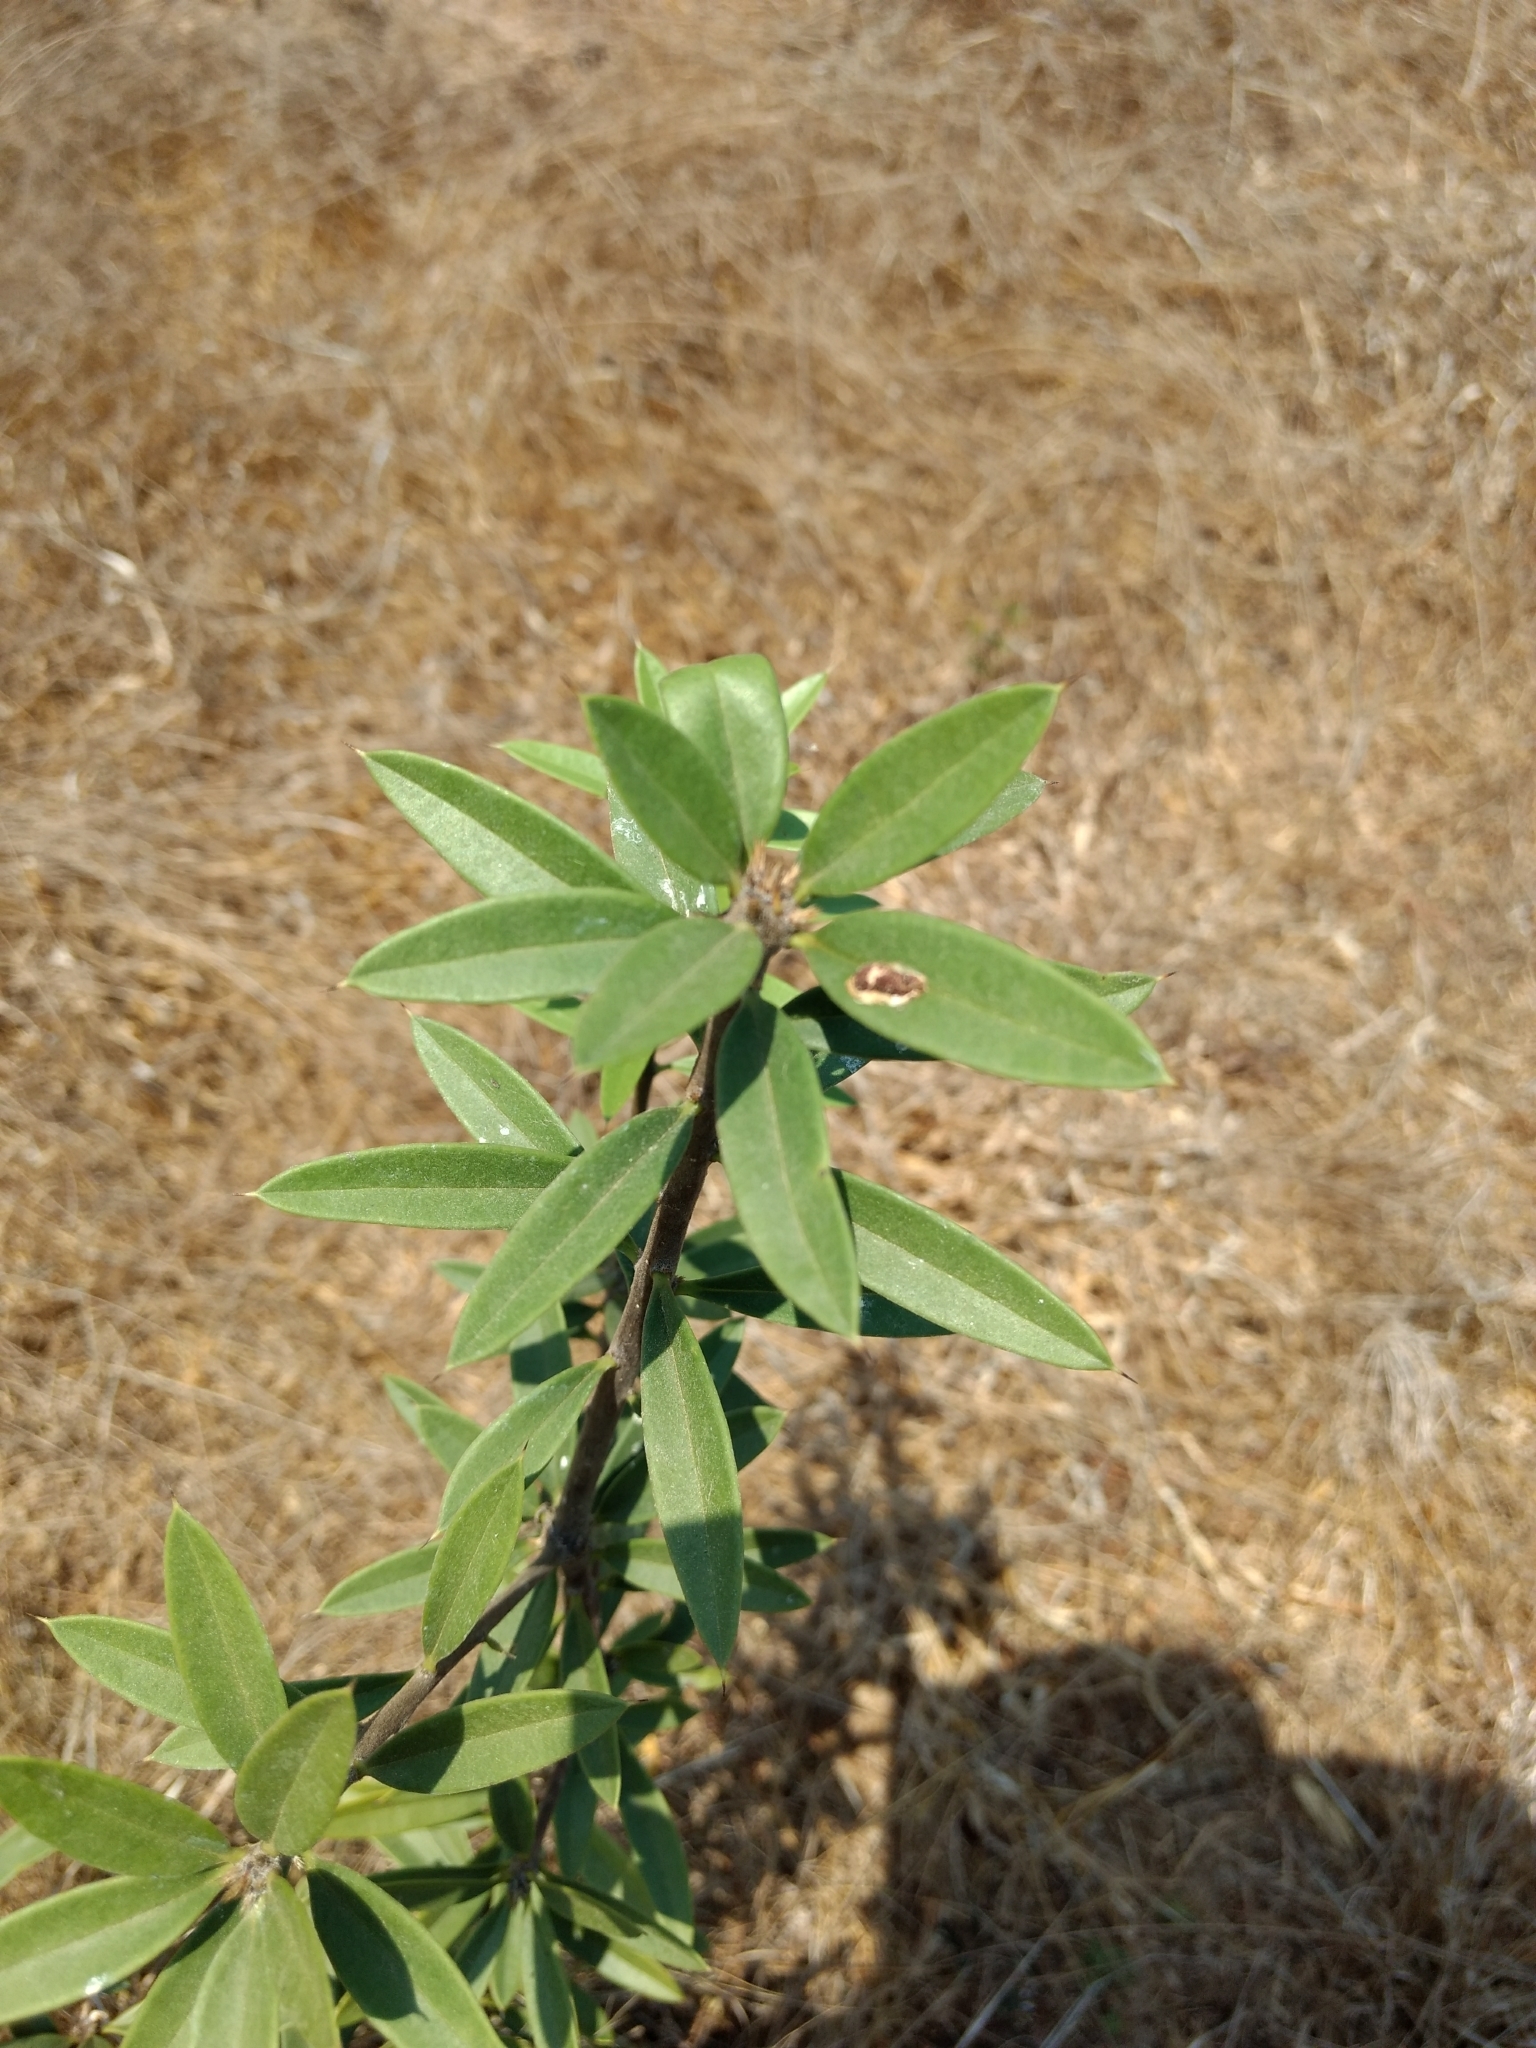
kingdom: Plantae
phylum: Tracheophyta
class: Magnoliopsida
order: Ericales
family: Primulaceae
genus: Bonellia
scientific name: Bonellia macrocarpa
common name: Primrose
